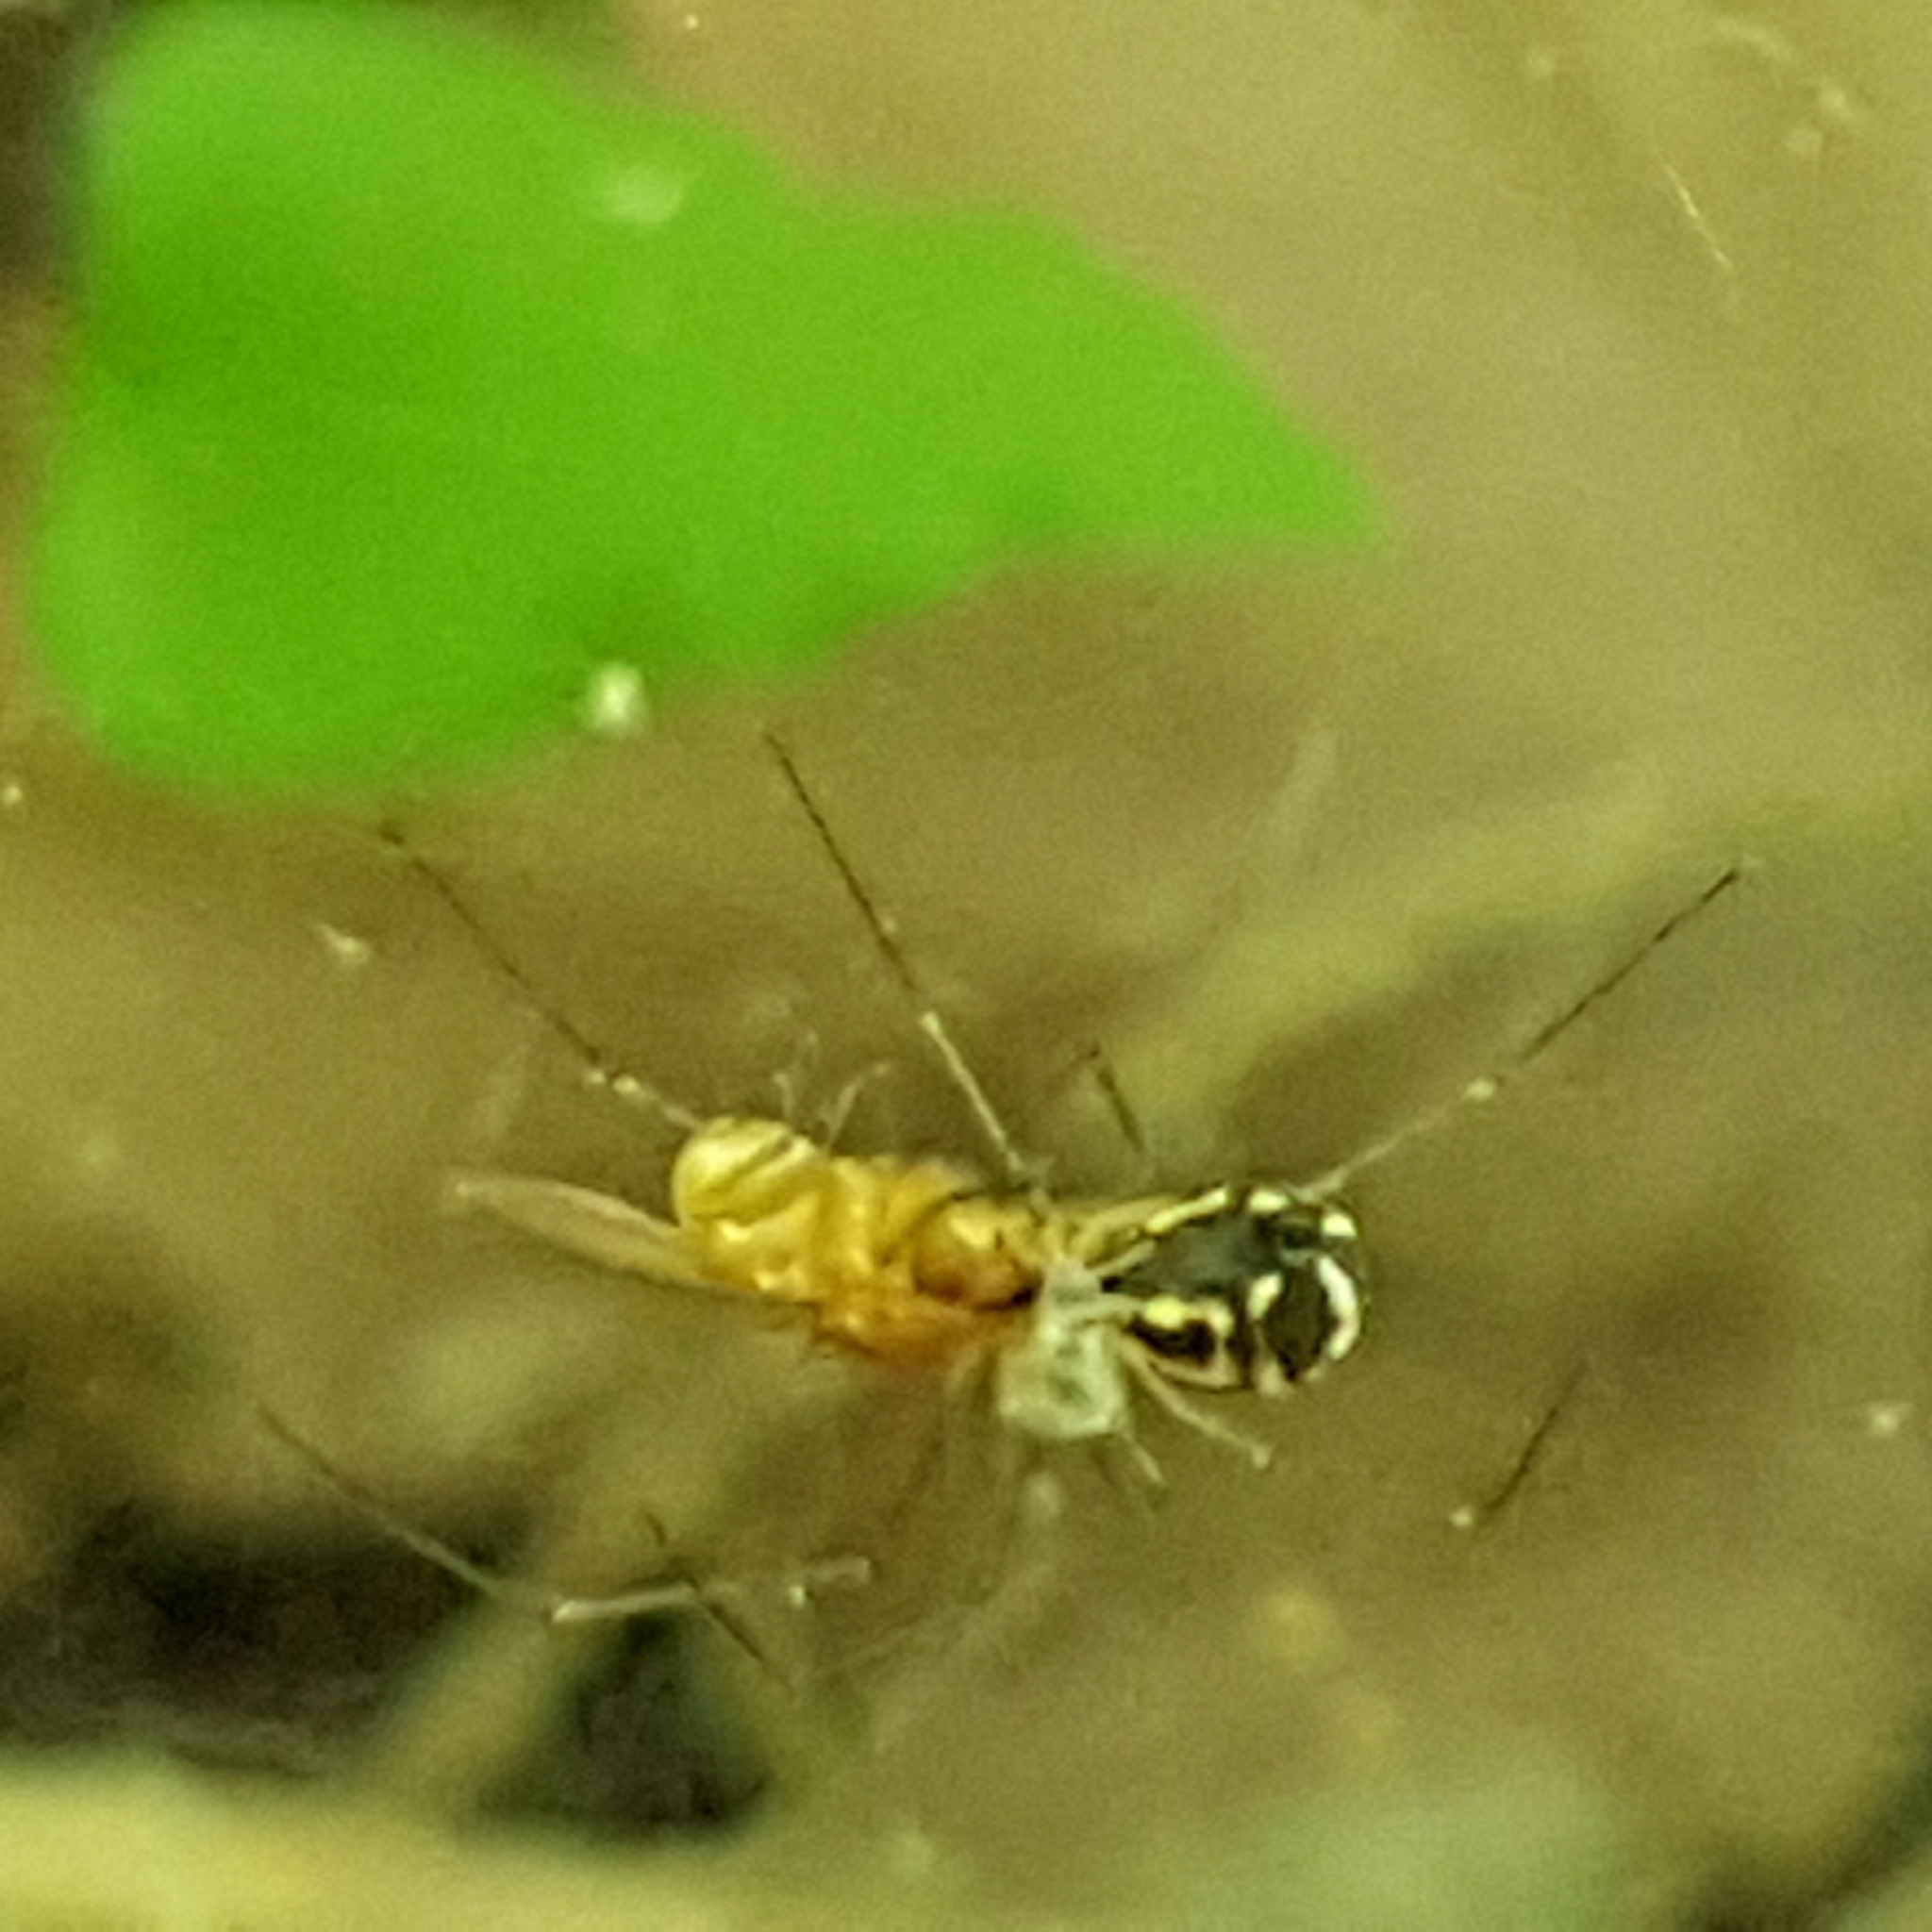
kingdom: Animalia
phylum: Arthropoda
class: Arachnida
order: Araneae
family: Linyphiidae
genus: Neriene
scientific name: Neriene radiata
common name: Filmy dome spider
